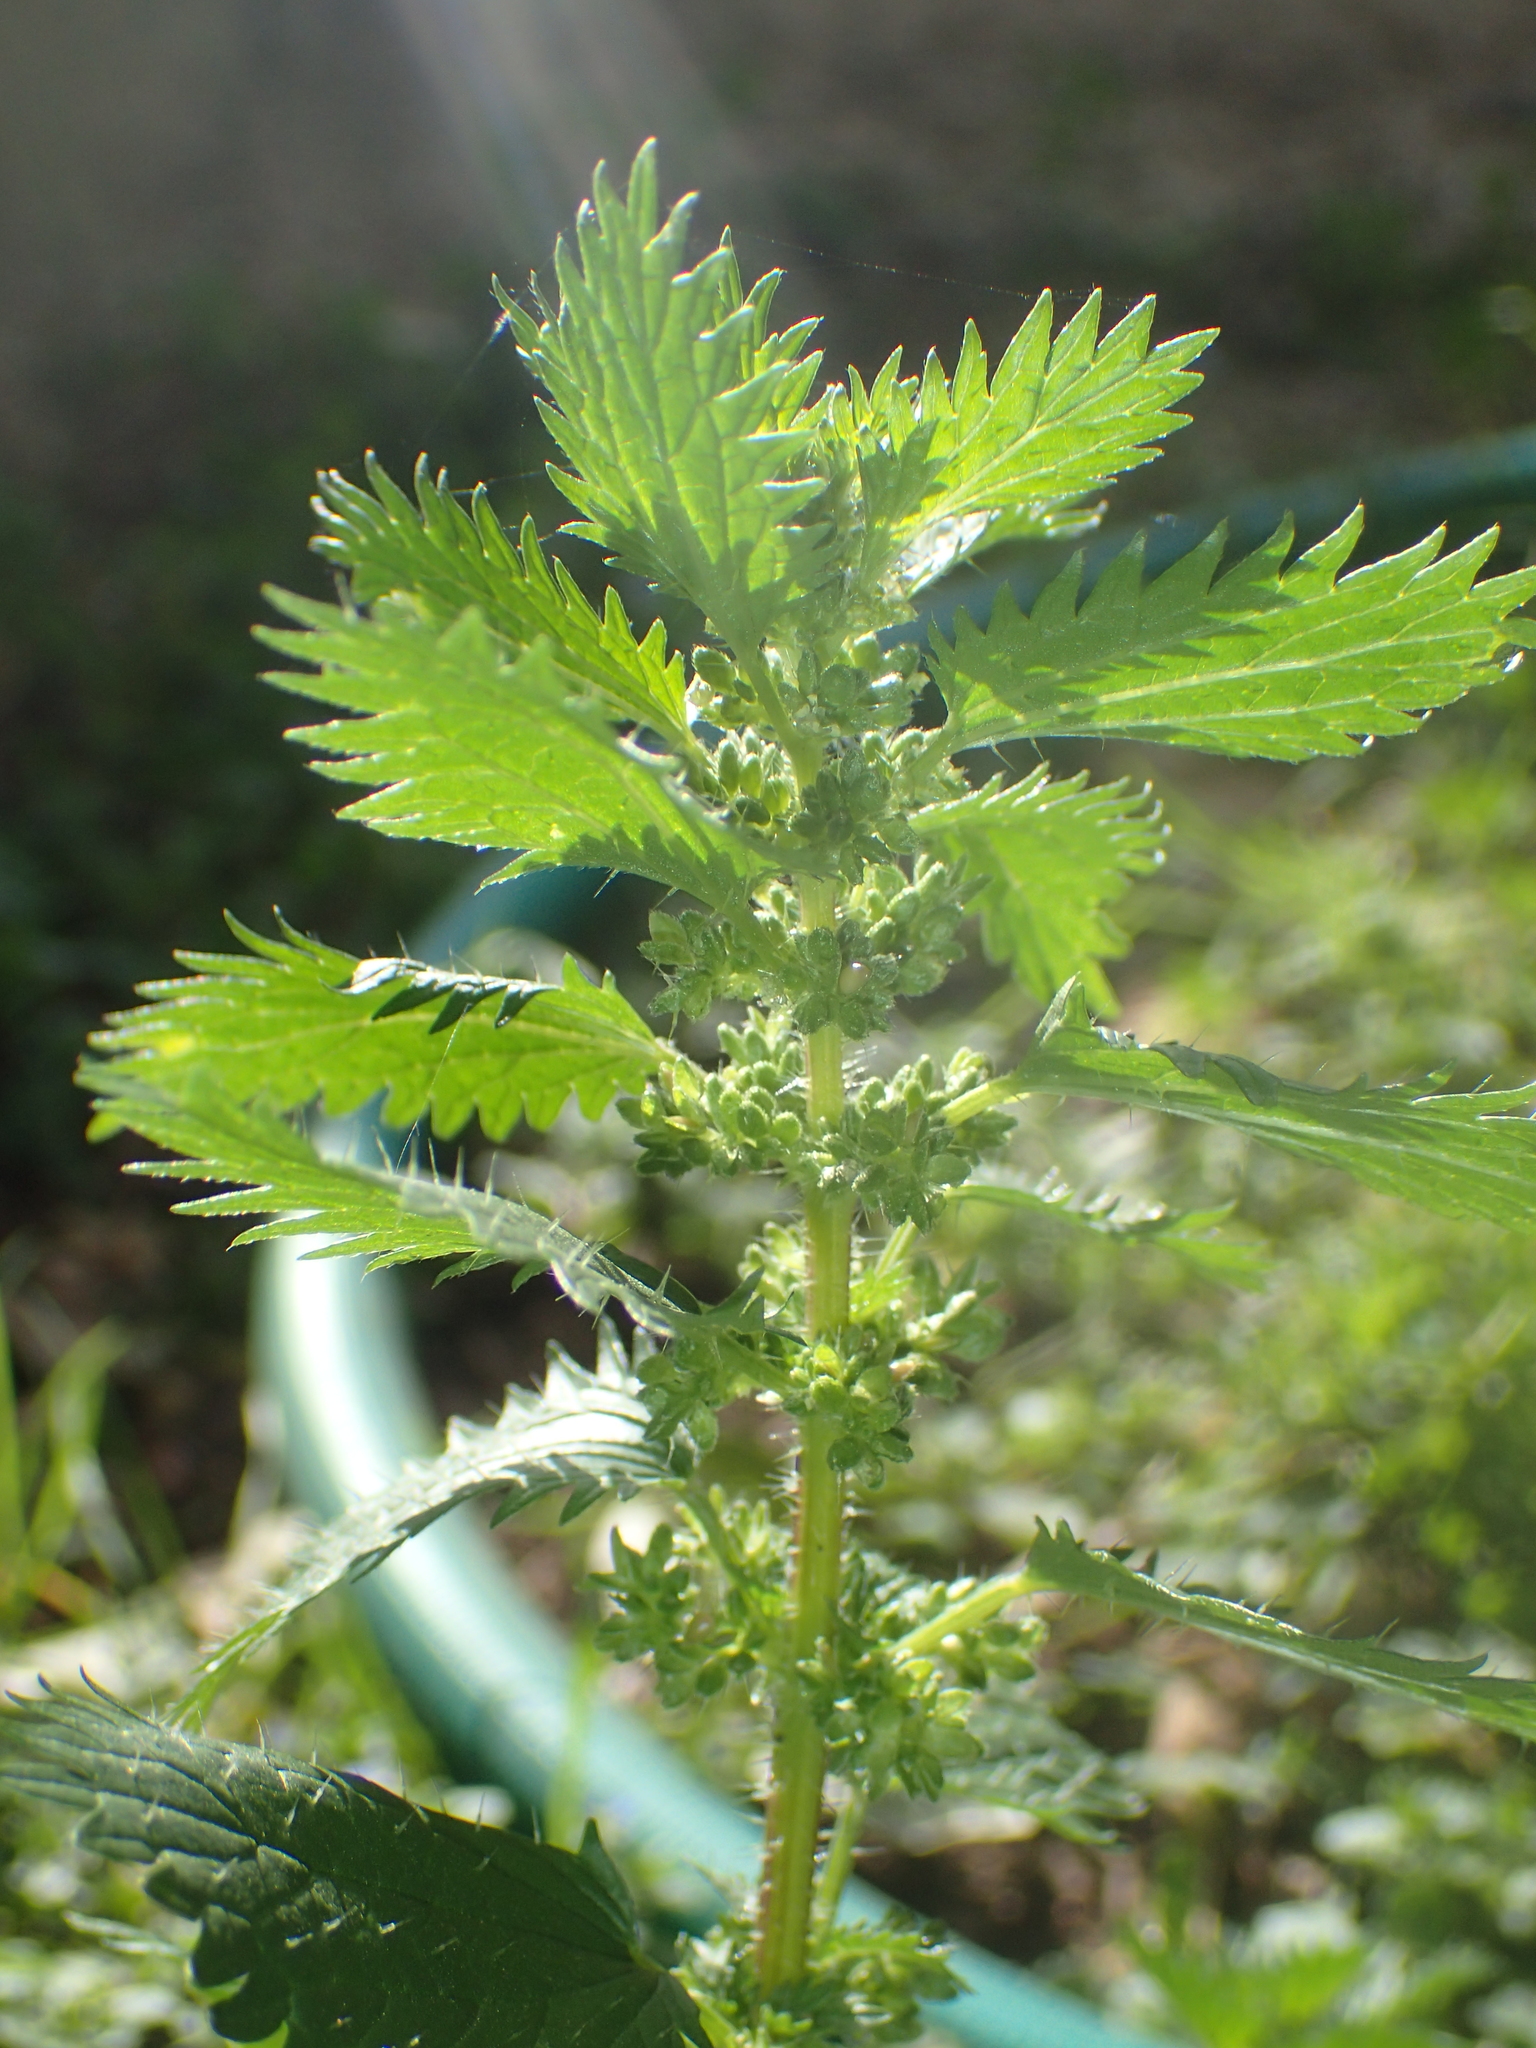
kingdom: Plantae
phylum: Tracheophyta
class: Magnoliopsida
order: Rosales
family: Urticaceae
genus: Urtica
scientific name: Urtica urens
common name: Dwarf nettle
